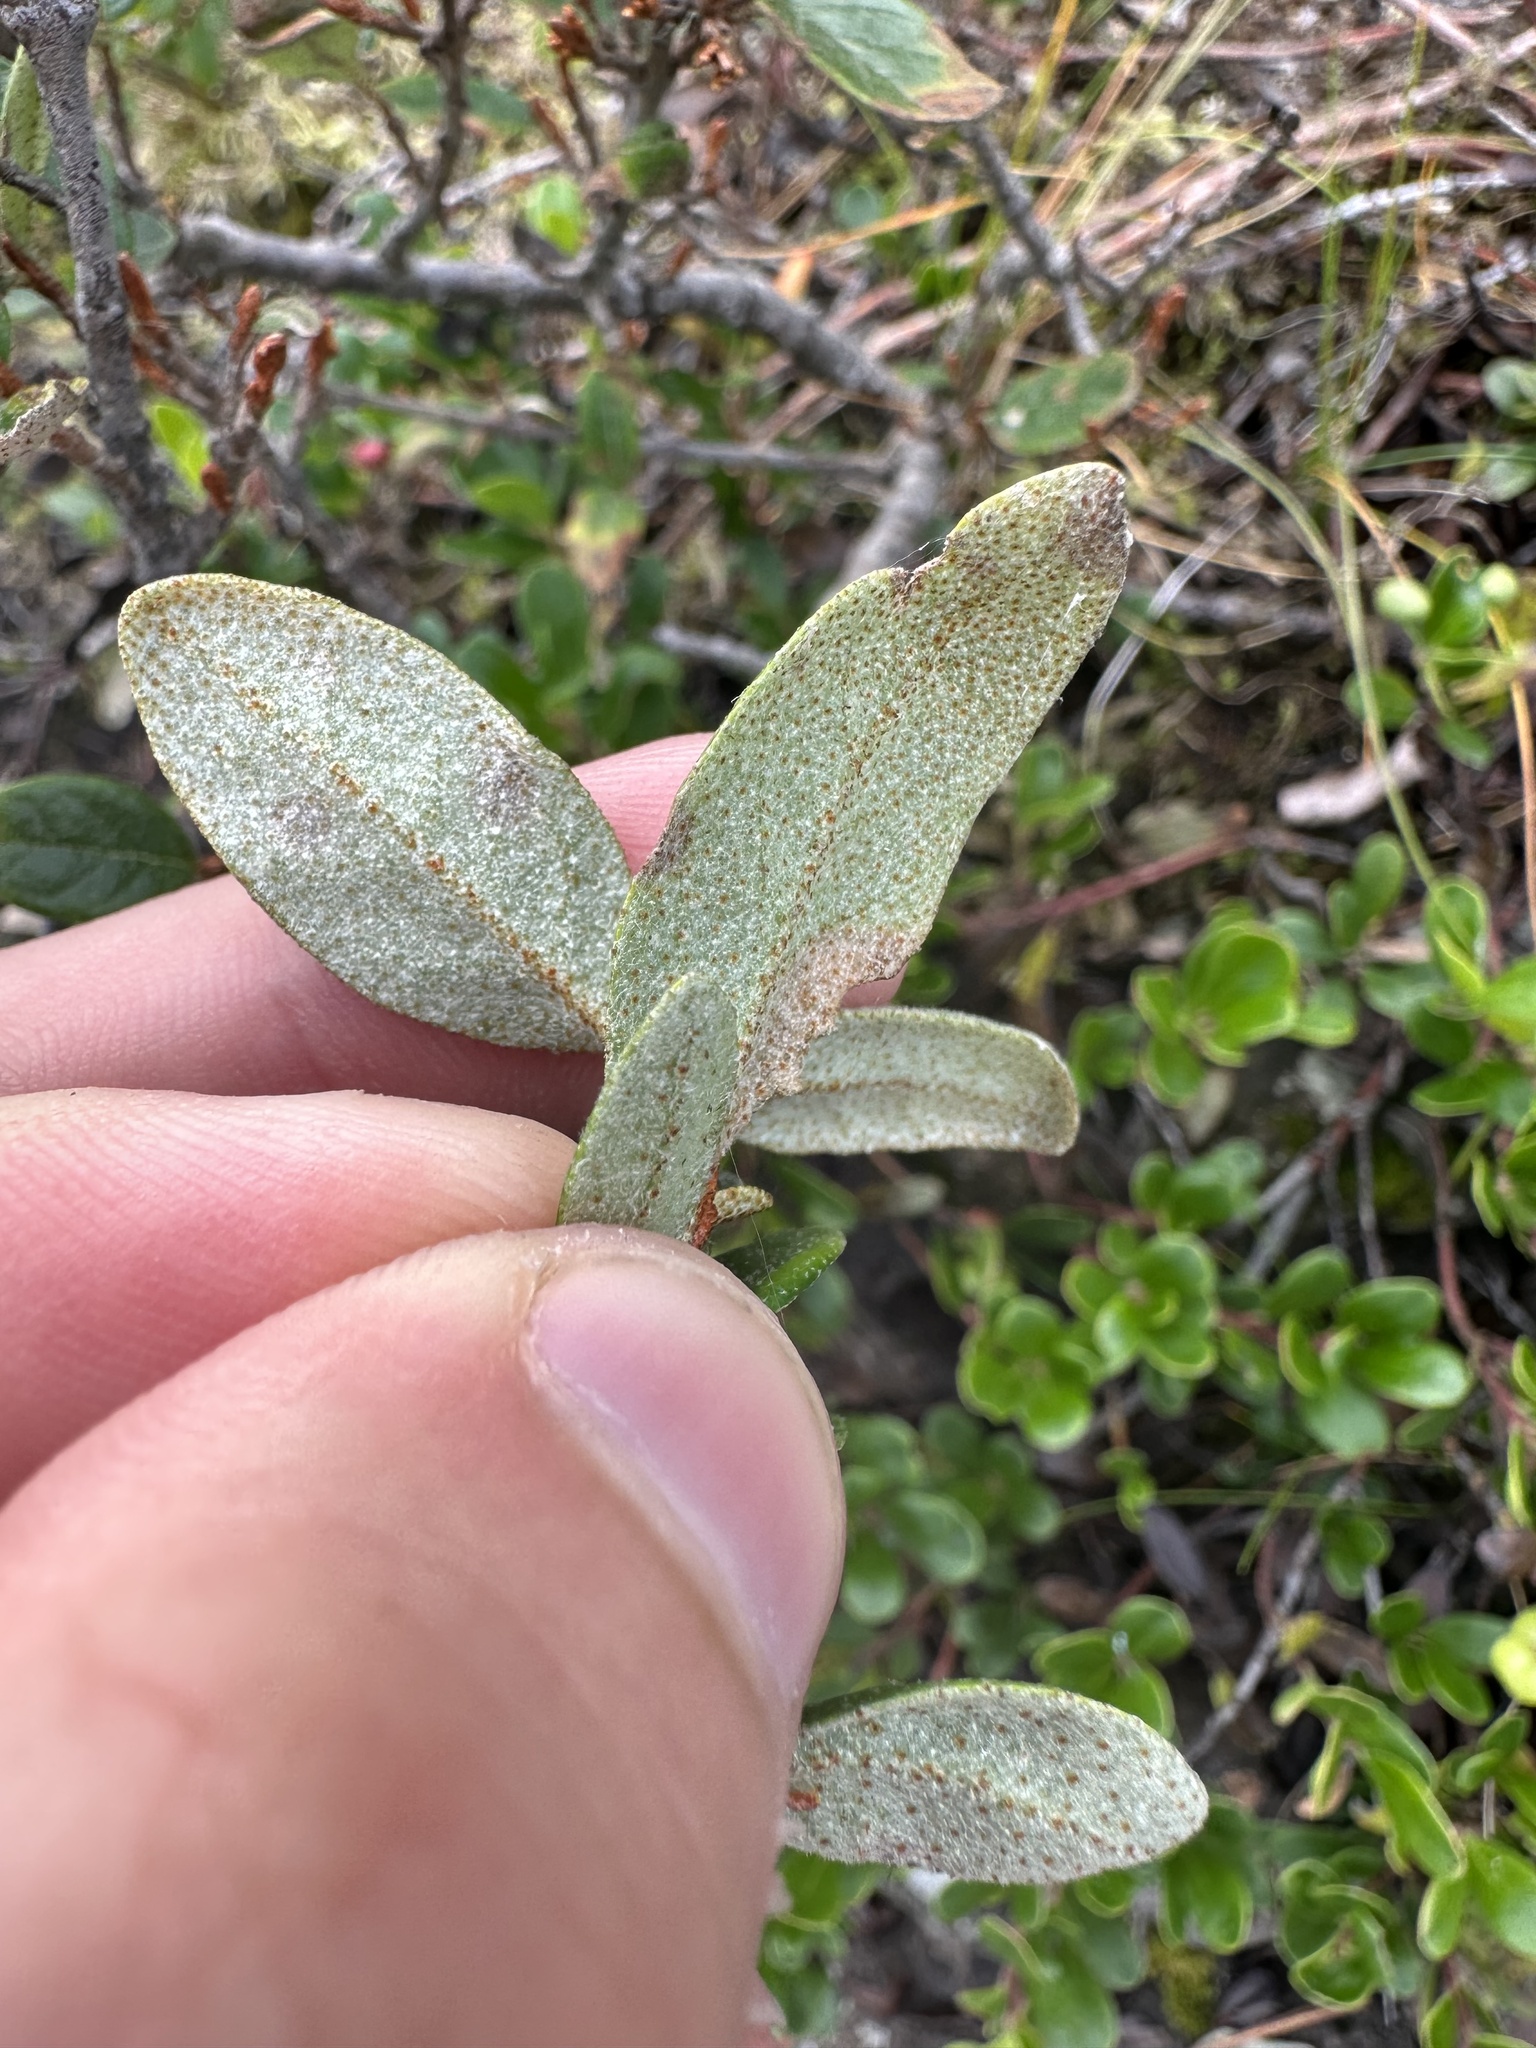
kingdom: Plantae
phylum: Tracheophyta
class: Magnoliopsida
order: Rosales
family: Elaeagnaceae
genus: Shepherdia
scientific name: Shepherdia canadensis
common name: Soapberry
